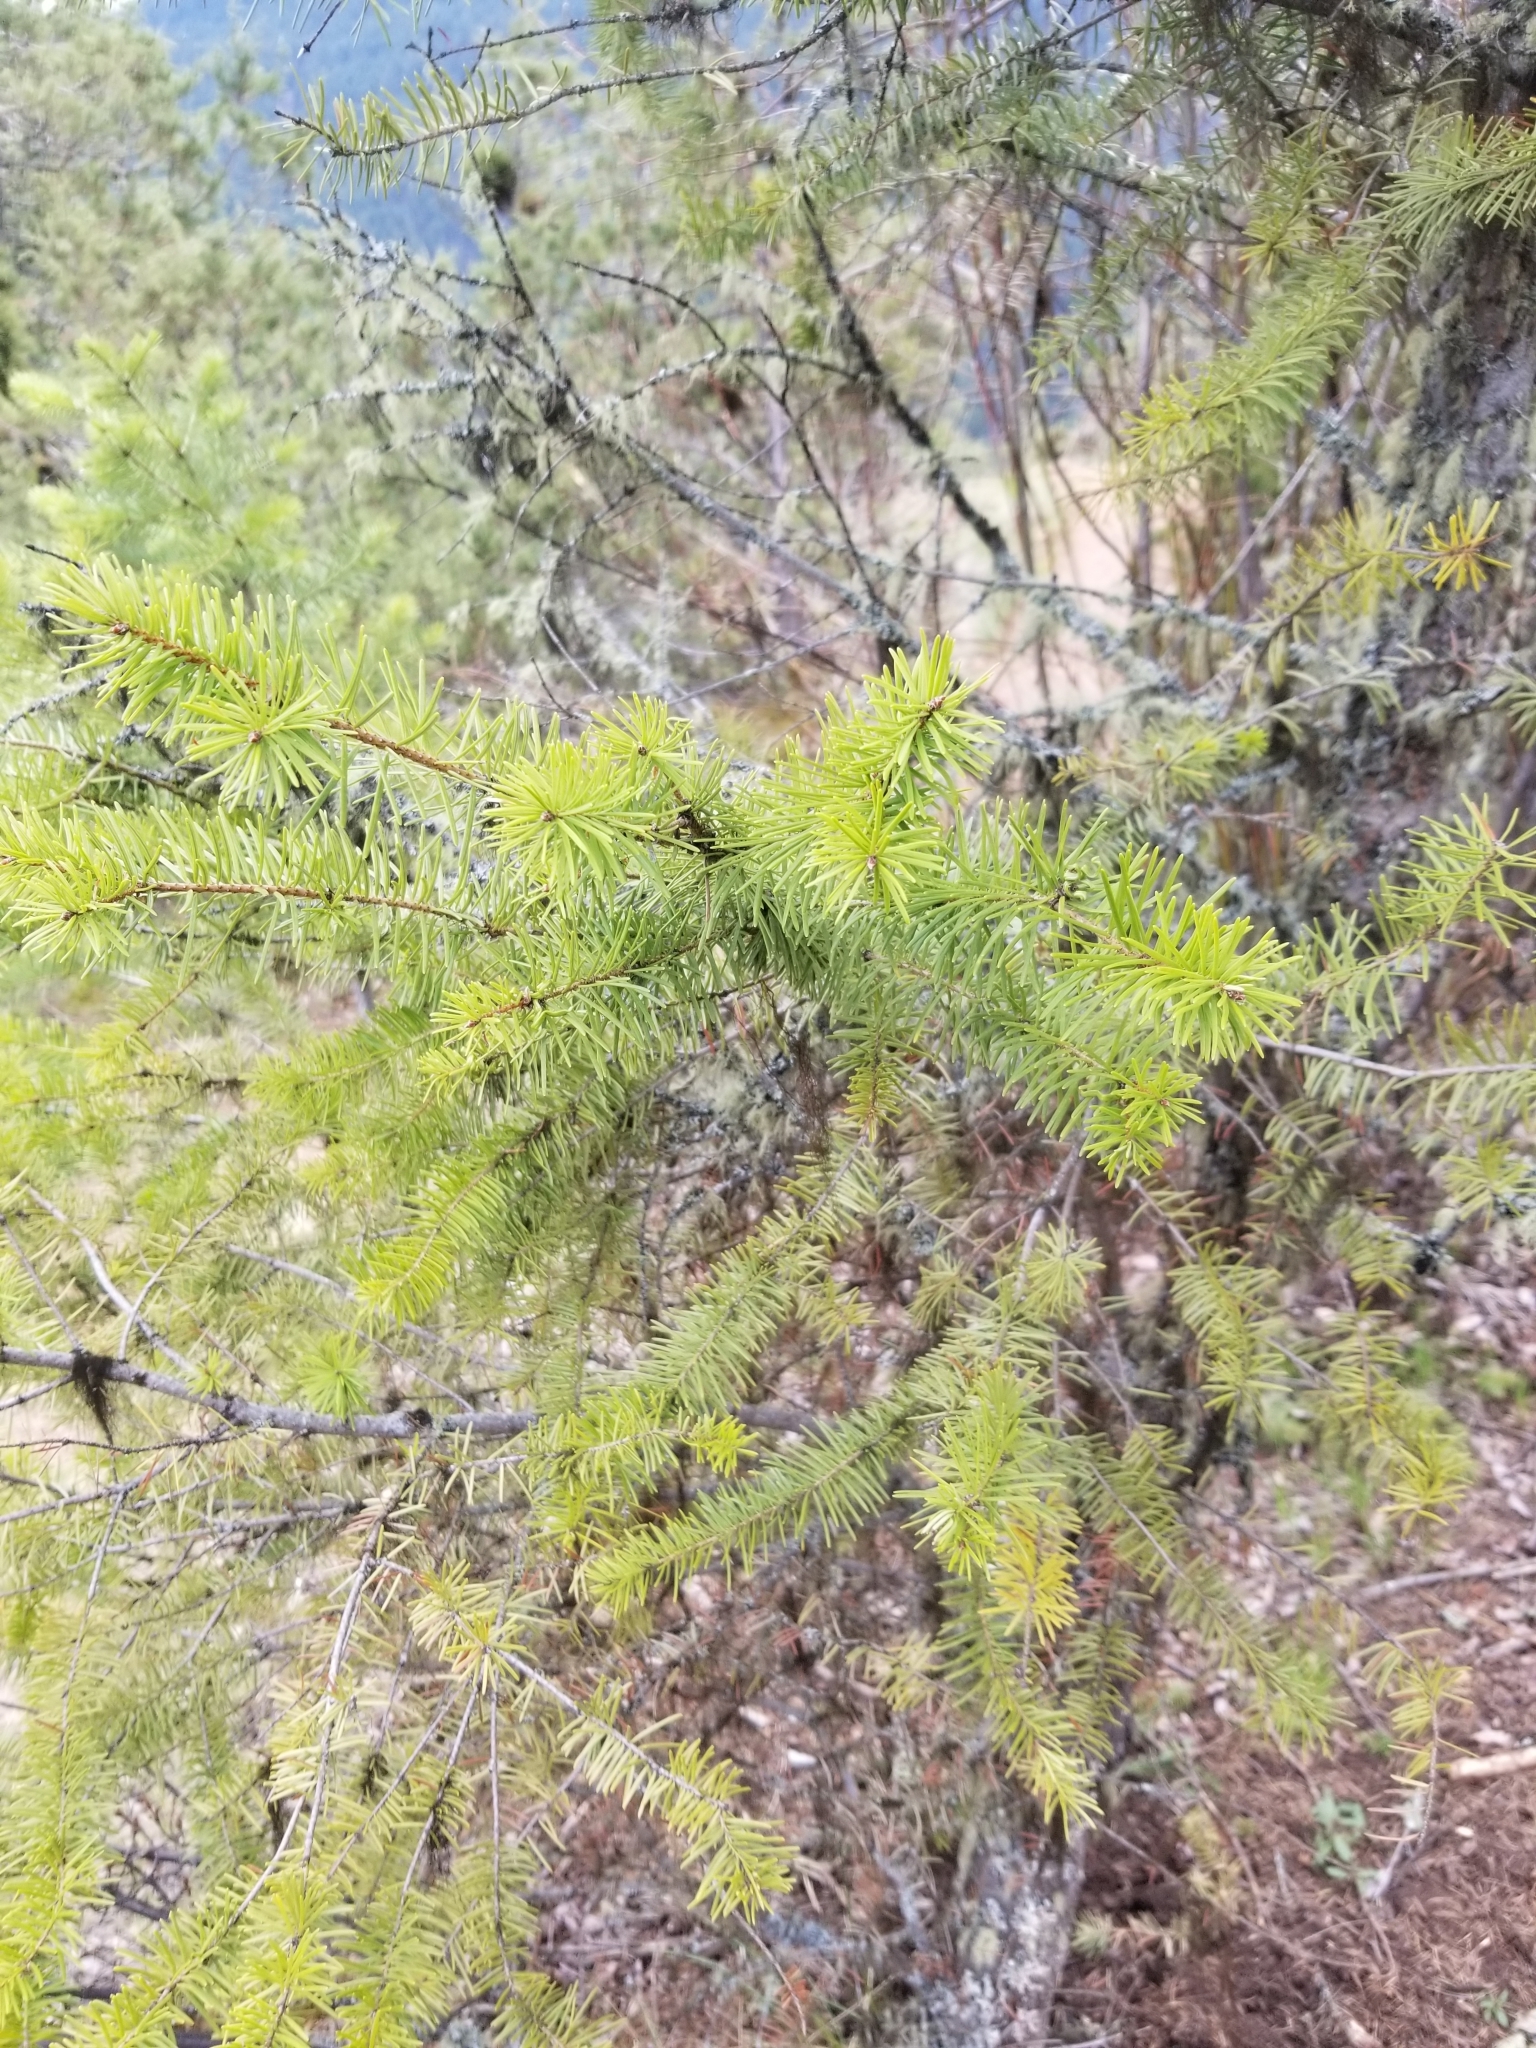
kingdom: Plantae
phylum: Tracheophyta
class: Pinopsida
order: Pinales
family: Pinaceae
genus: Pseudotsuga
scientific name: Pseudotsuga menziesii
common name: Douglas fir
